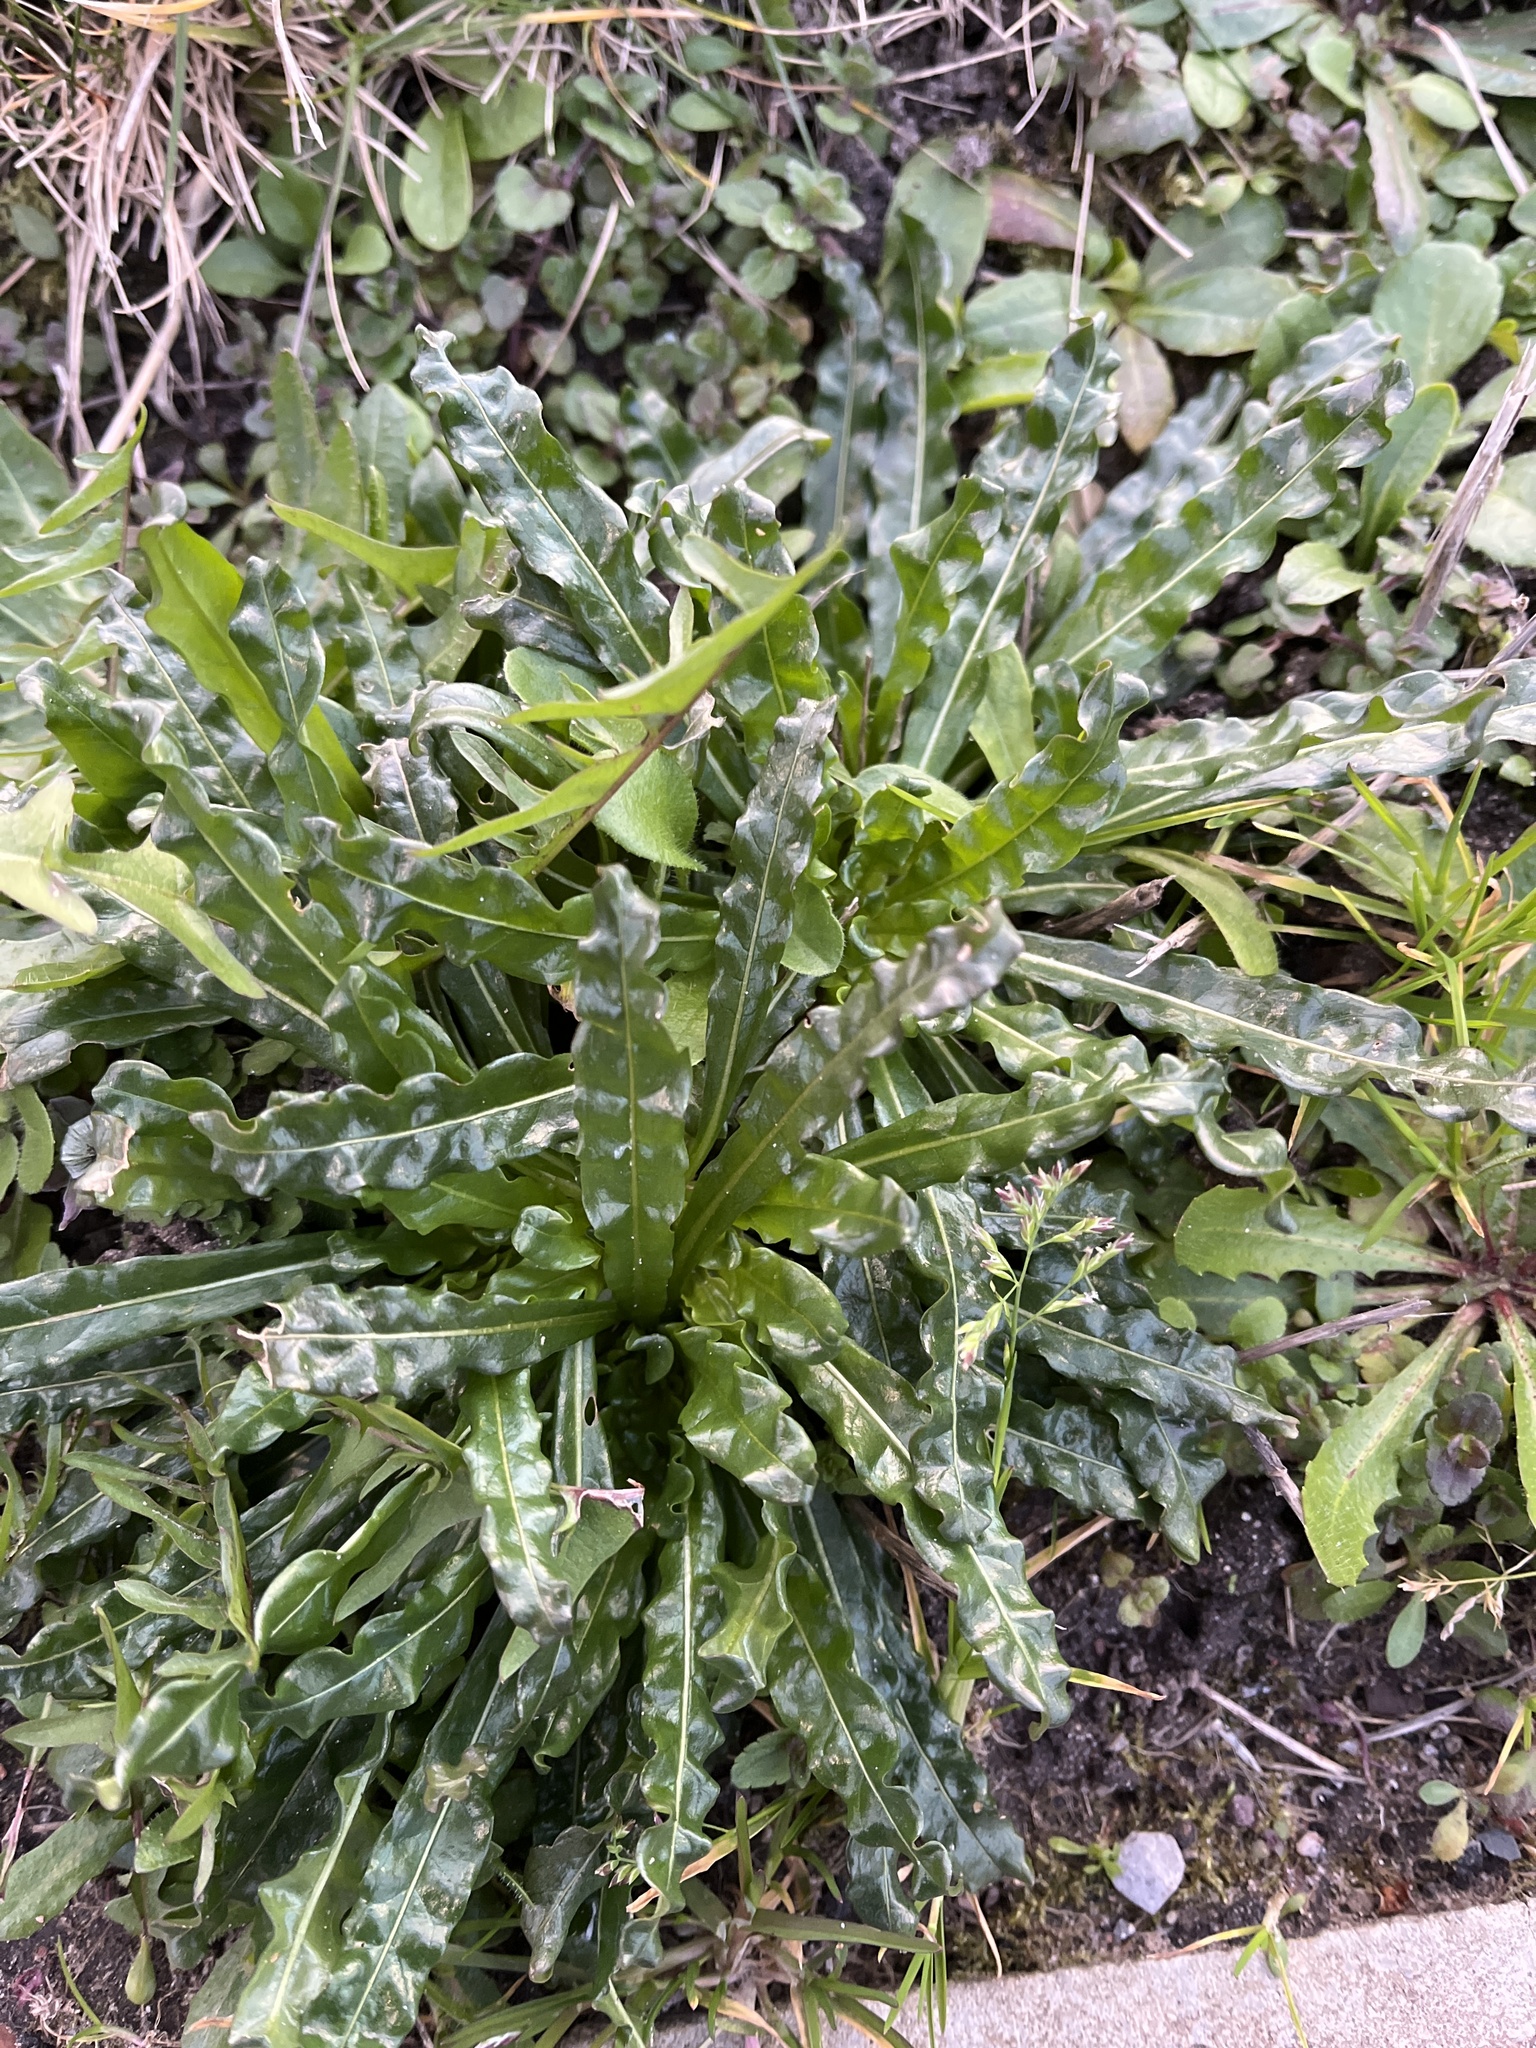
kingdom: Plantae
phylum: Tracheophyta
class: Magnoliopsida
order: Brassicales
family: Resedaceae
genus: Reseda
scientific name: Reseda luteola
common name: Weld
